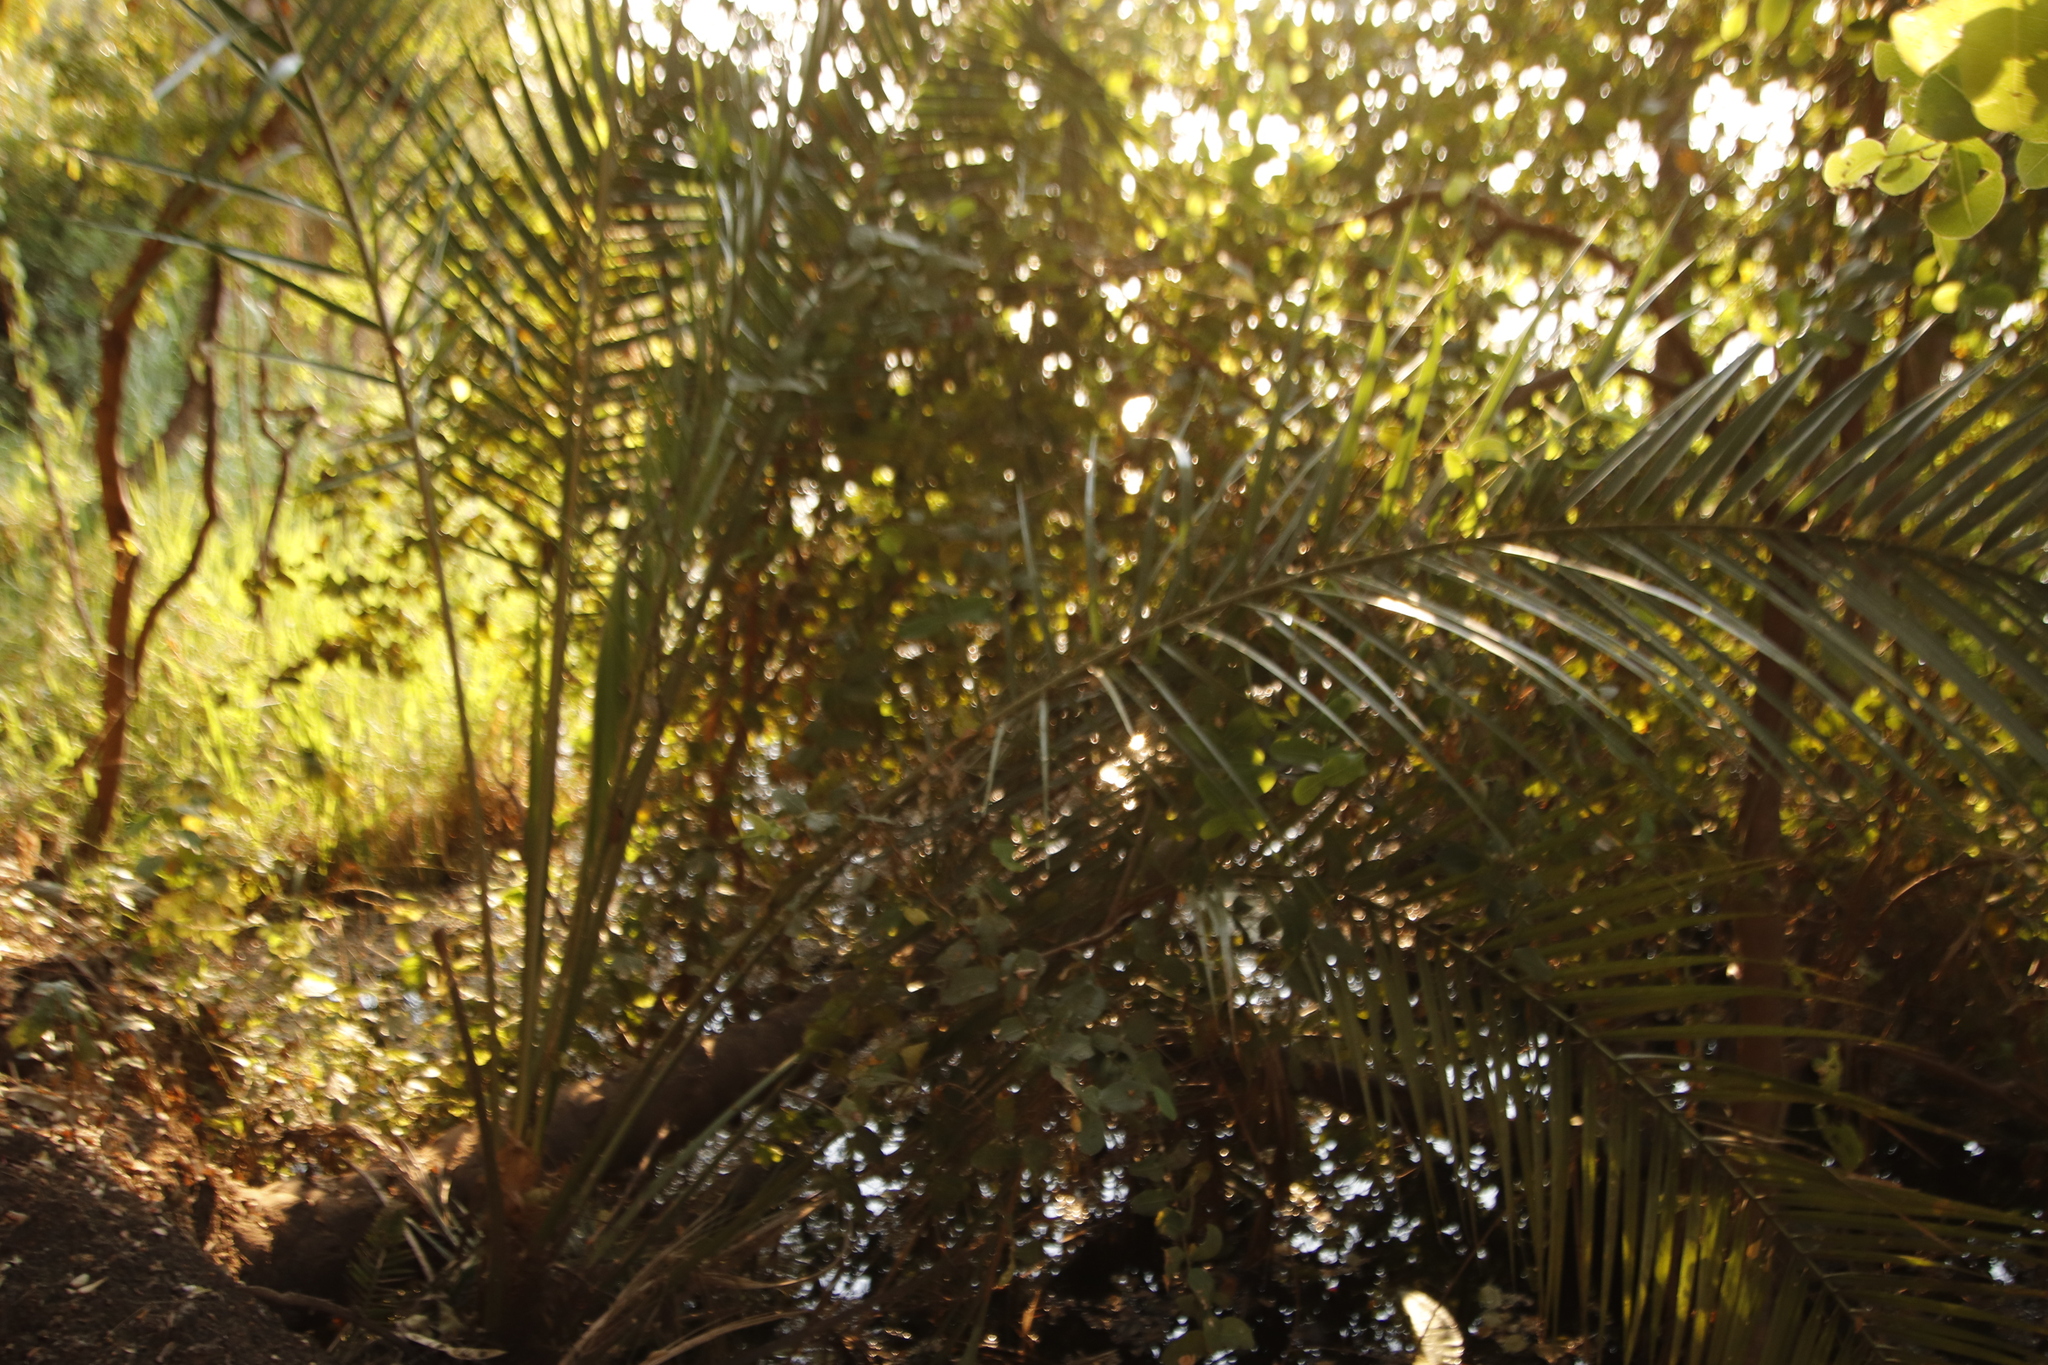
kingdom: Plantae
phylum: Tracheophyta
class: Liliopsida
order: Arecales
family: Arecaceae
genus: Phoenix
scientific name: Phoenix reclinata
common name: Senegal date palm
